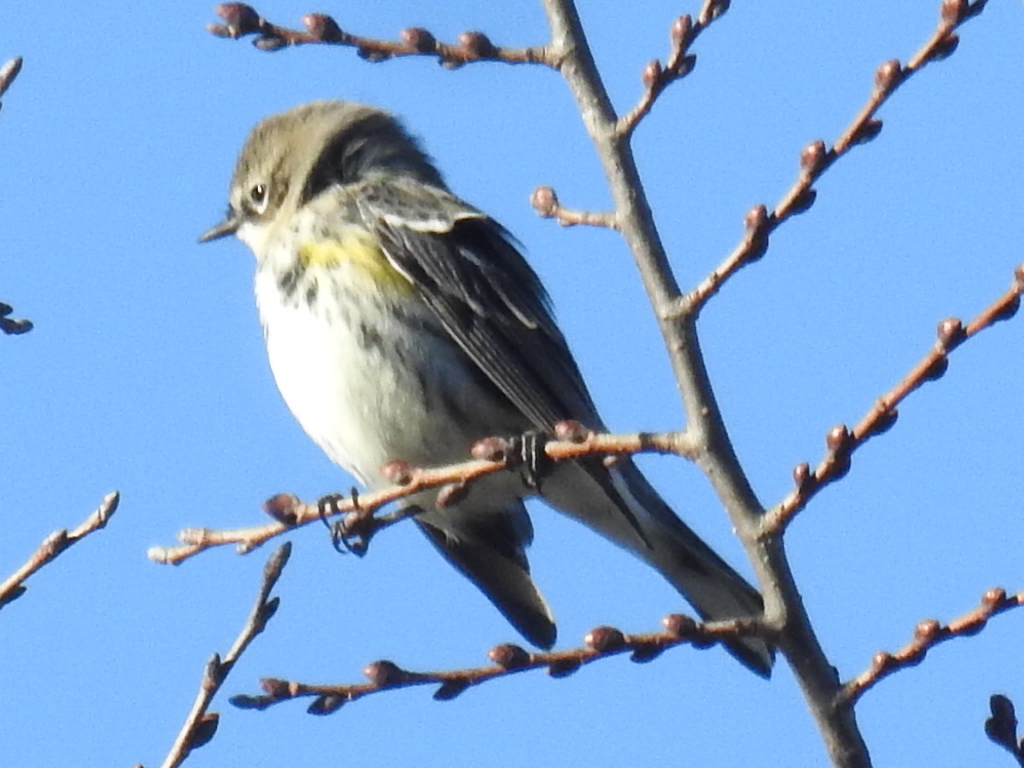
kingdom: Animalia
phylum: Chordata
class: Aves
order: Passeriformes
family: Parulidae
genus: Setophaga
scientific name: Setophaga coronata
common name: Myrtle warbler
